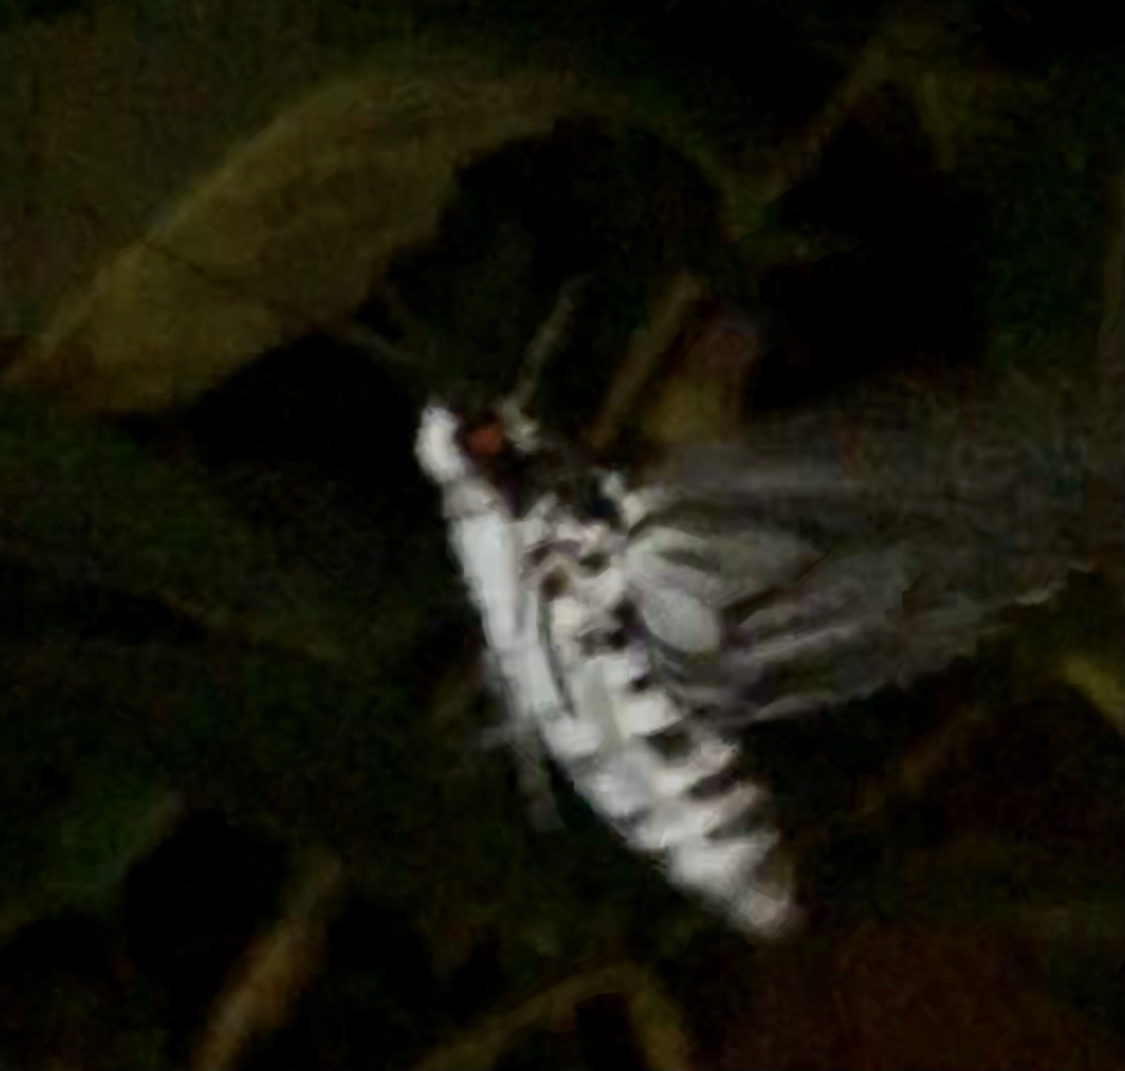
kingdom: Animalia
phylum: Arthropoda
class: Insecta
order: Lepidoptera
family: Sphingidae
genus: Manduca
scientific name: Manduca rustica
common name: Rustic sphinx
